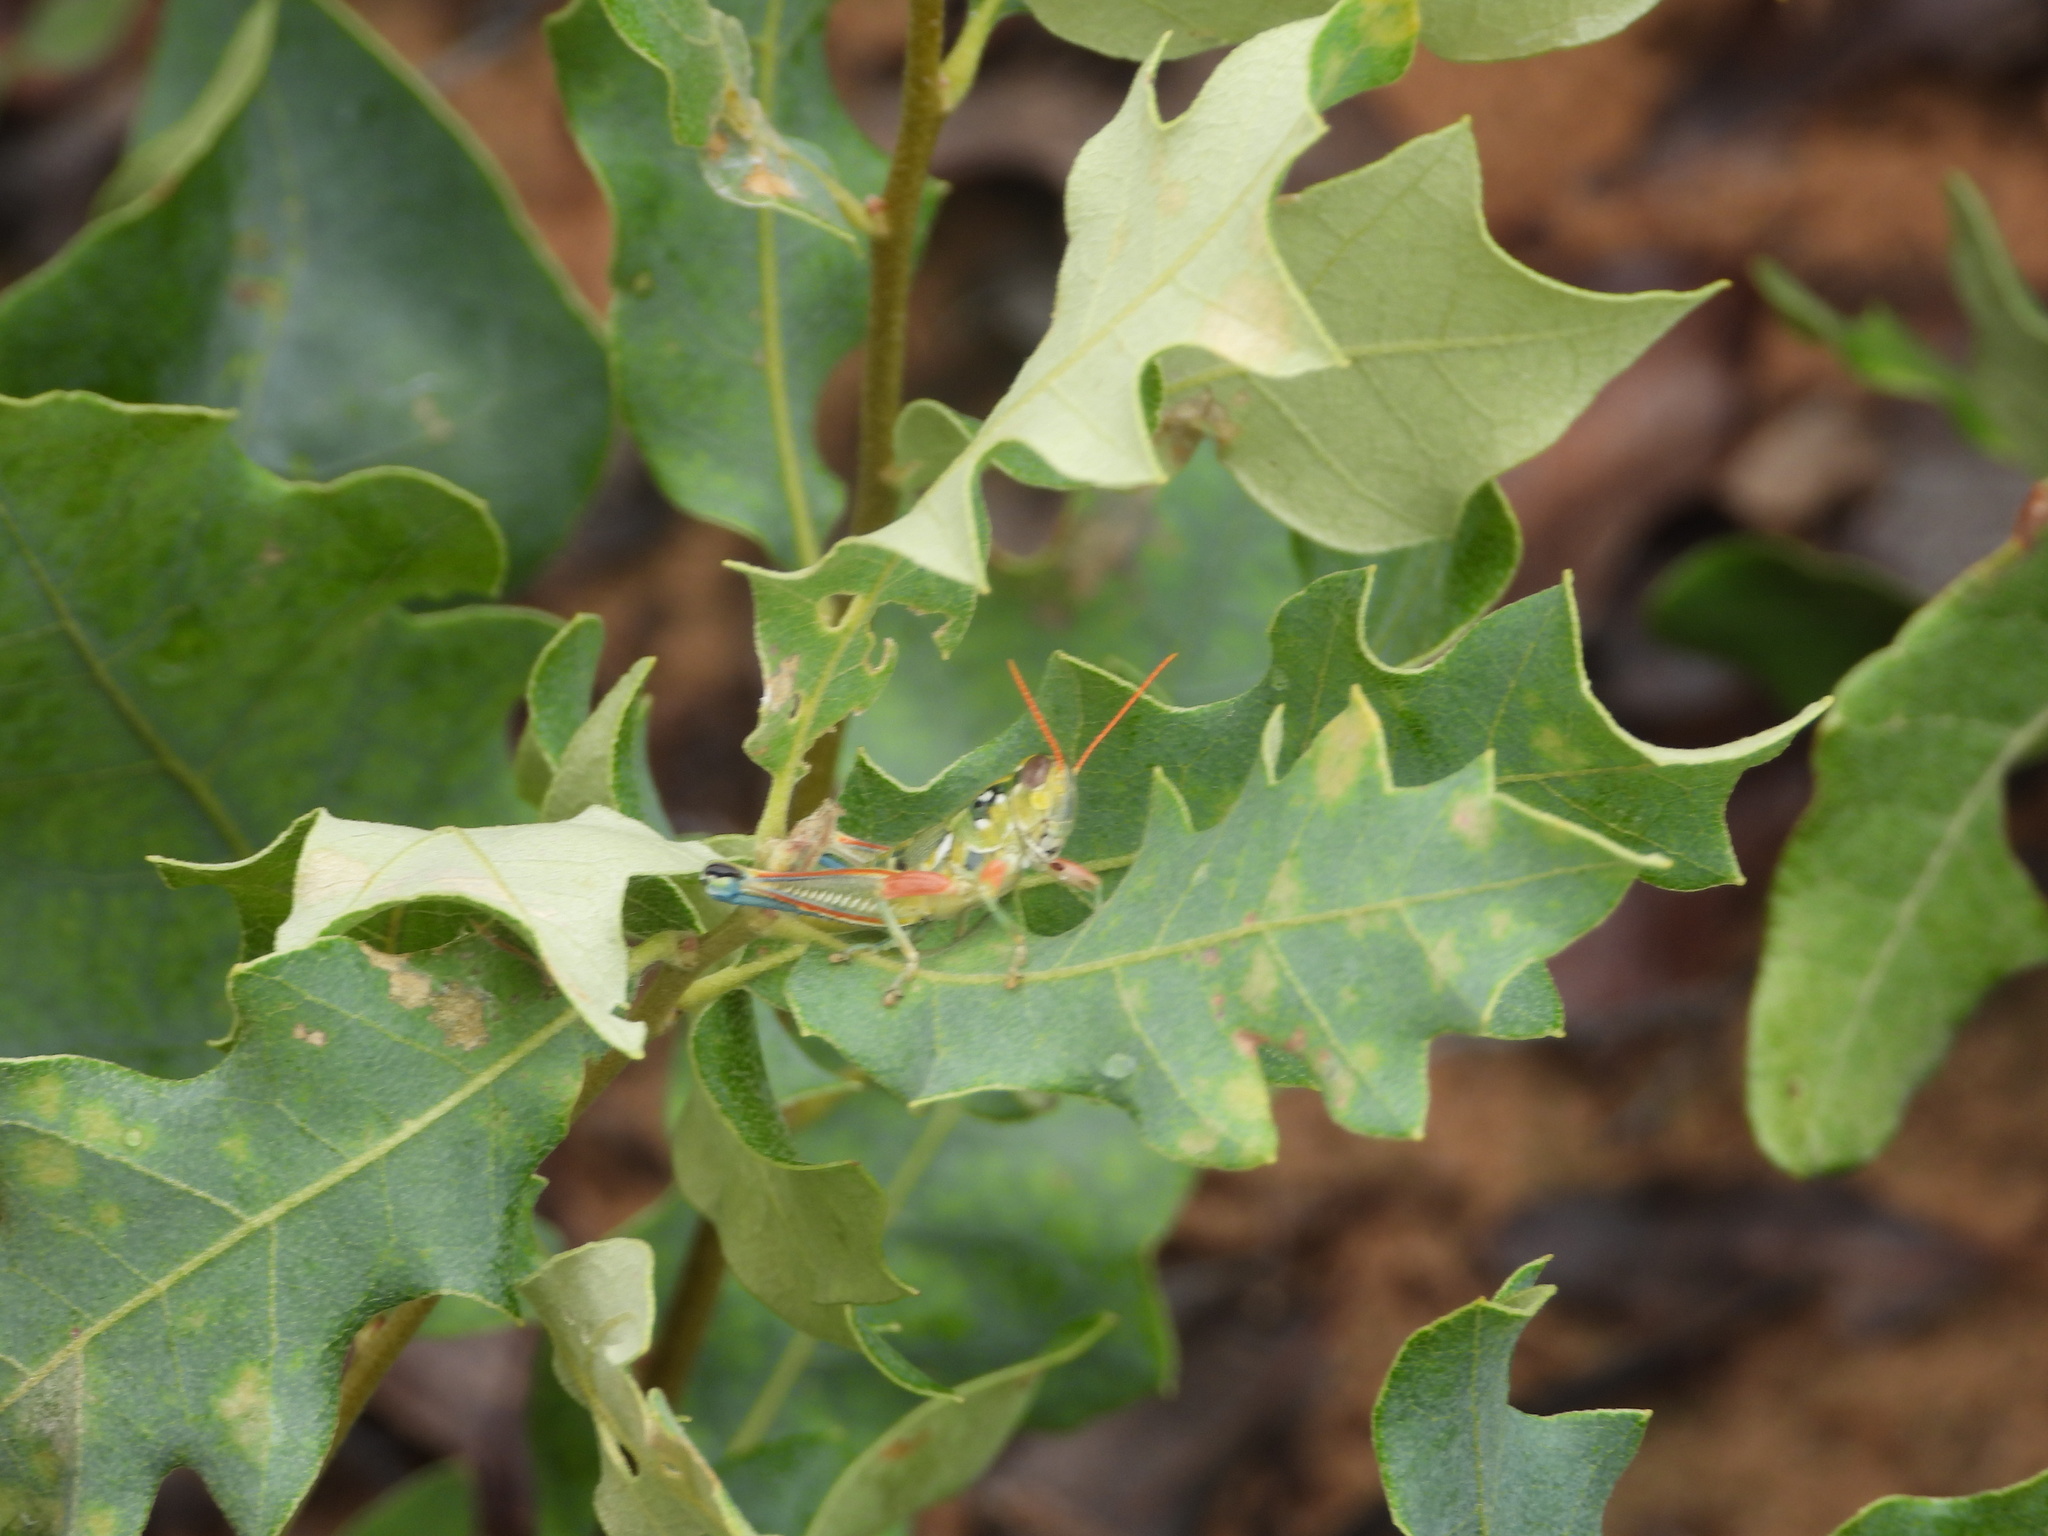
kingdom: Animalia
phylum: Arthropoda
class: Insecta
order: Orthoptera
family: Acrididae
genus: Campylacantha
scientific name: Campylacantha olivacea
